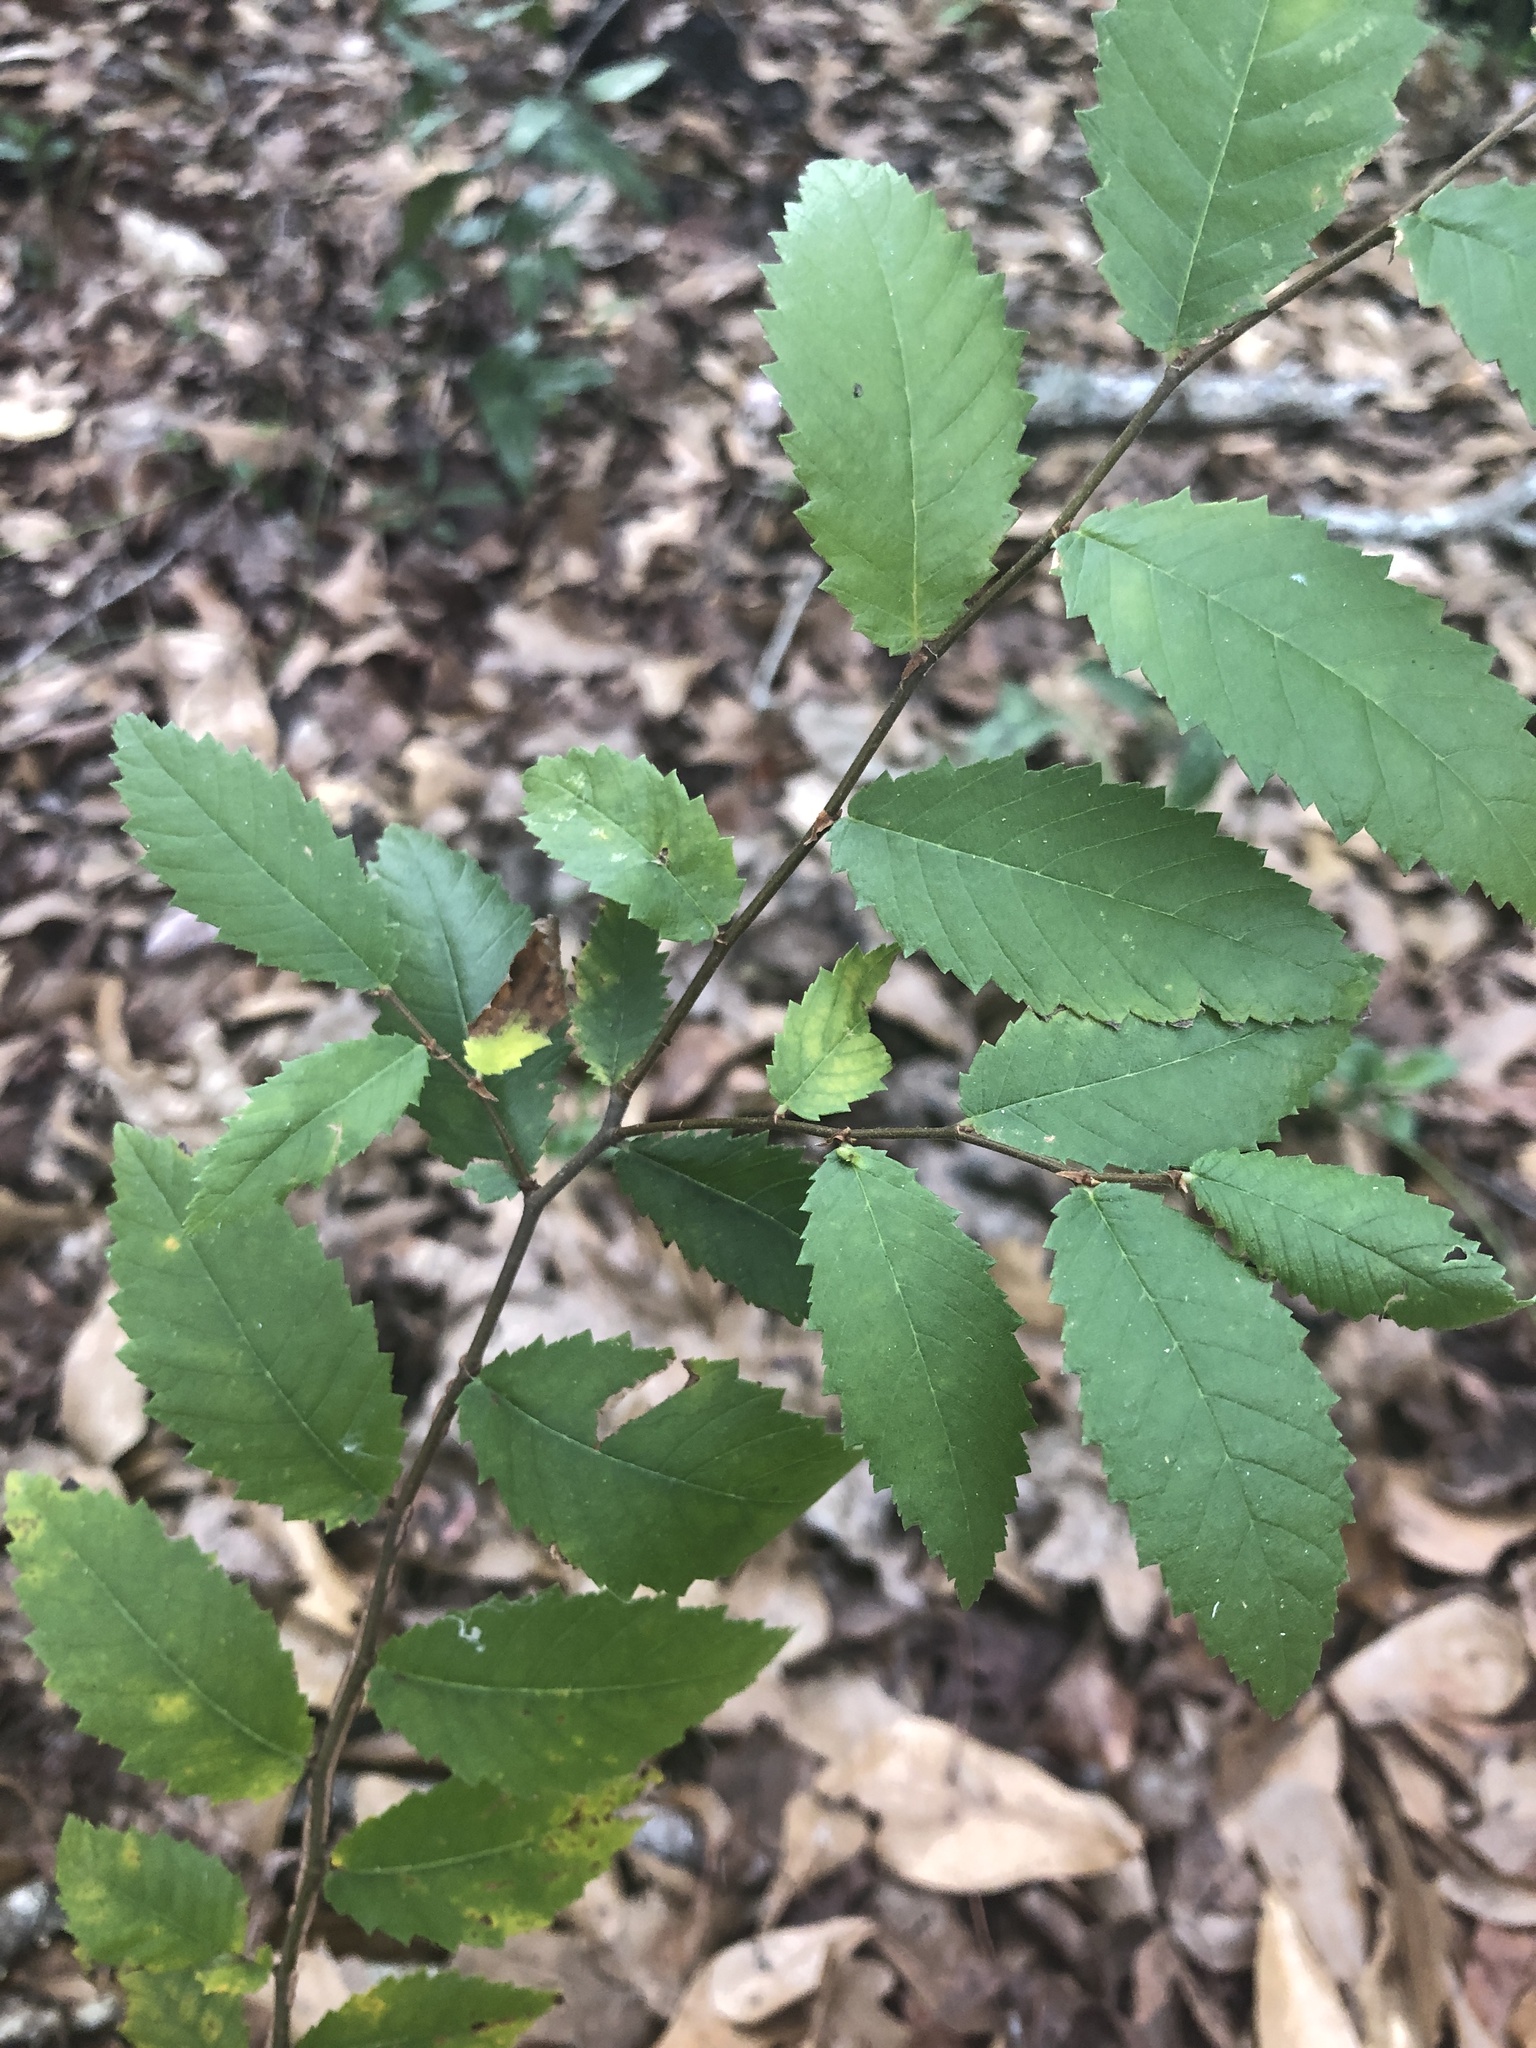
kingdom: Plantae
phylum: Tracheophyta
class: Magnoliopsida
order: Rosales
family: Ulmaceae
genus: Ulmus
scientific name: Ulmus alata
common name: Winged elm
